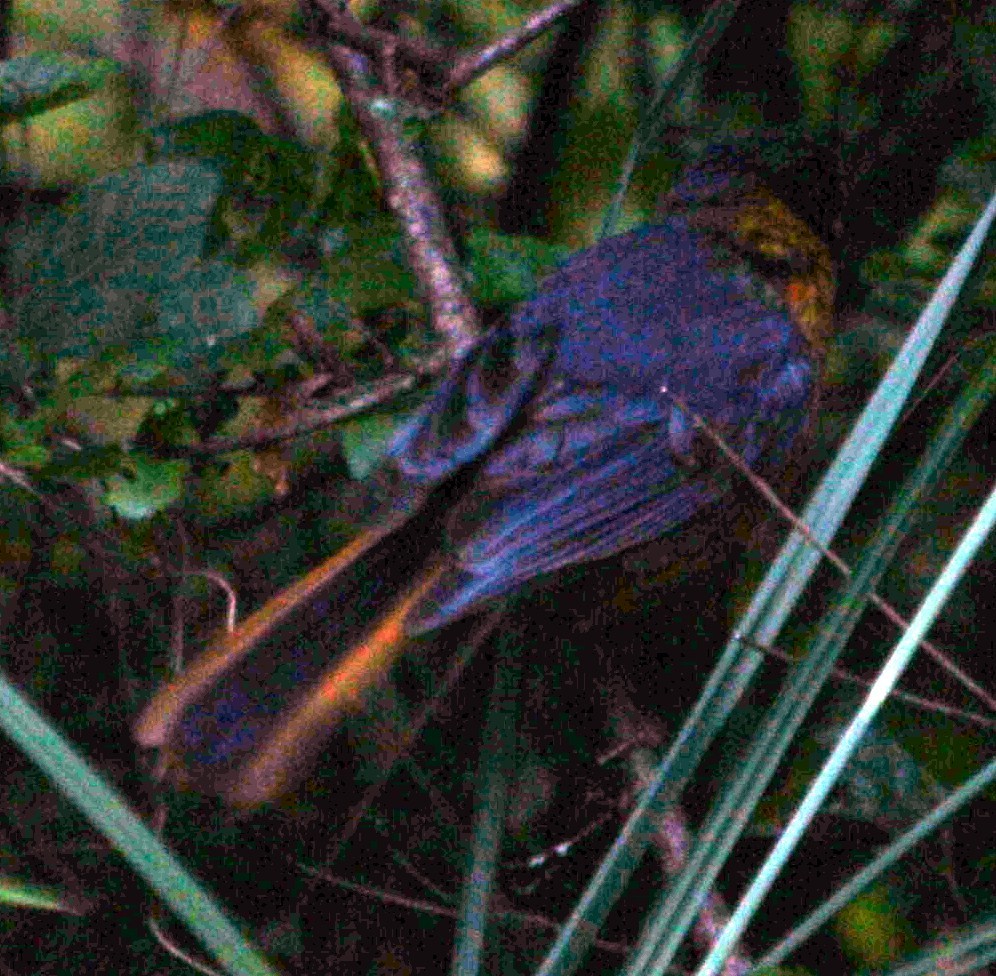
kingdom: Animalia
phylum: Chordata
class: Aves
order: Passeriformes
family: Muscicapidae
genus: Cossypha
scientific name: Cossypha dichroa
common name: Chorister robin-chat
